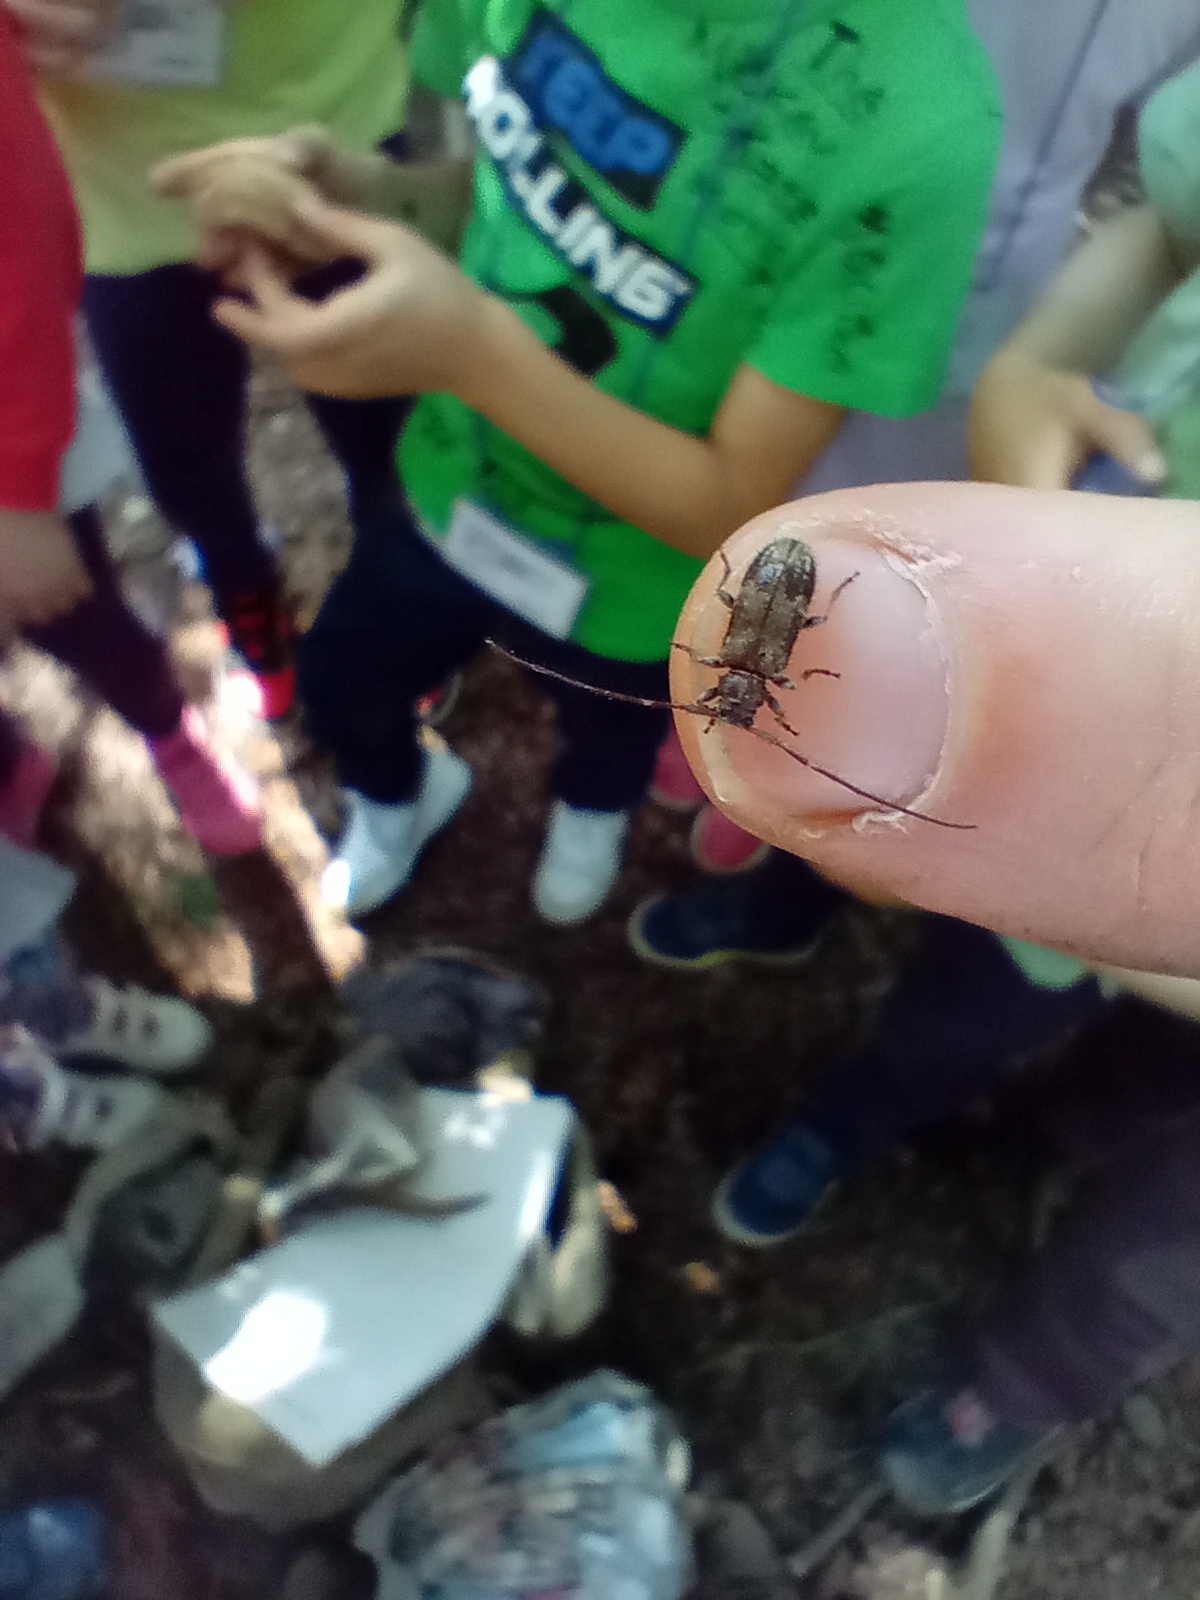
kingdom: Animalia
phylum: Arthropoda
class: Insecta
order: Coleoptera
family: Cerambycidae
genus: Exocentrus
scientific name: Exocentrus adspersus
